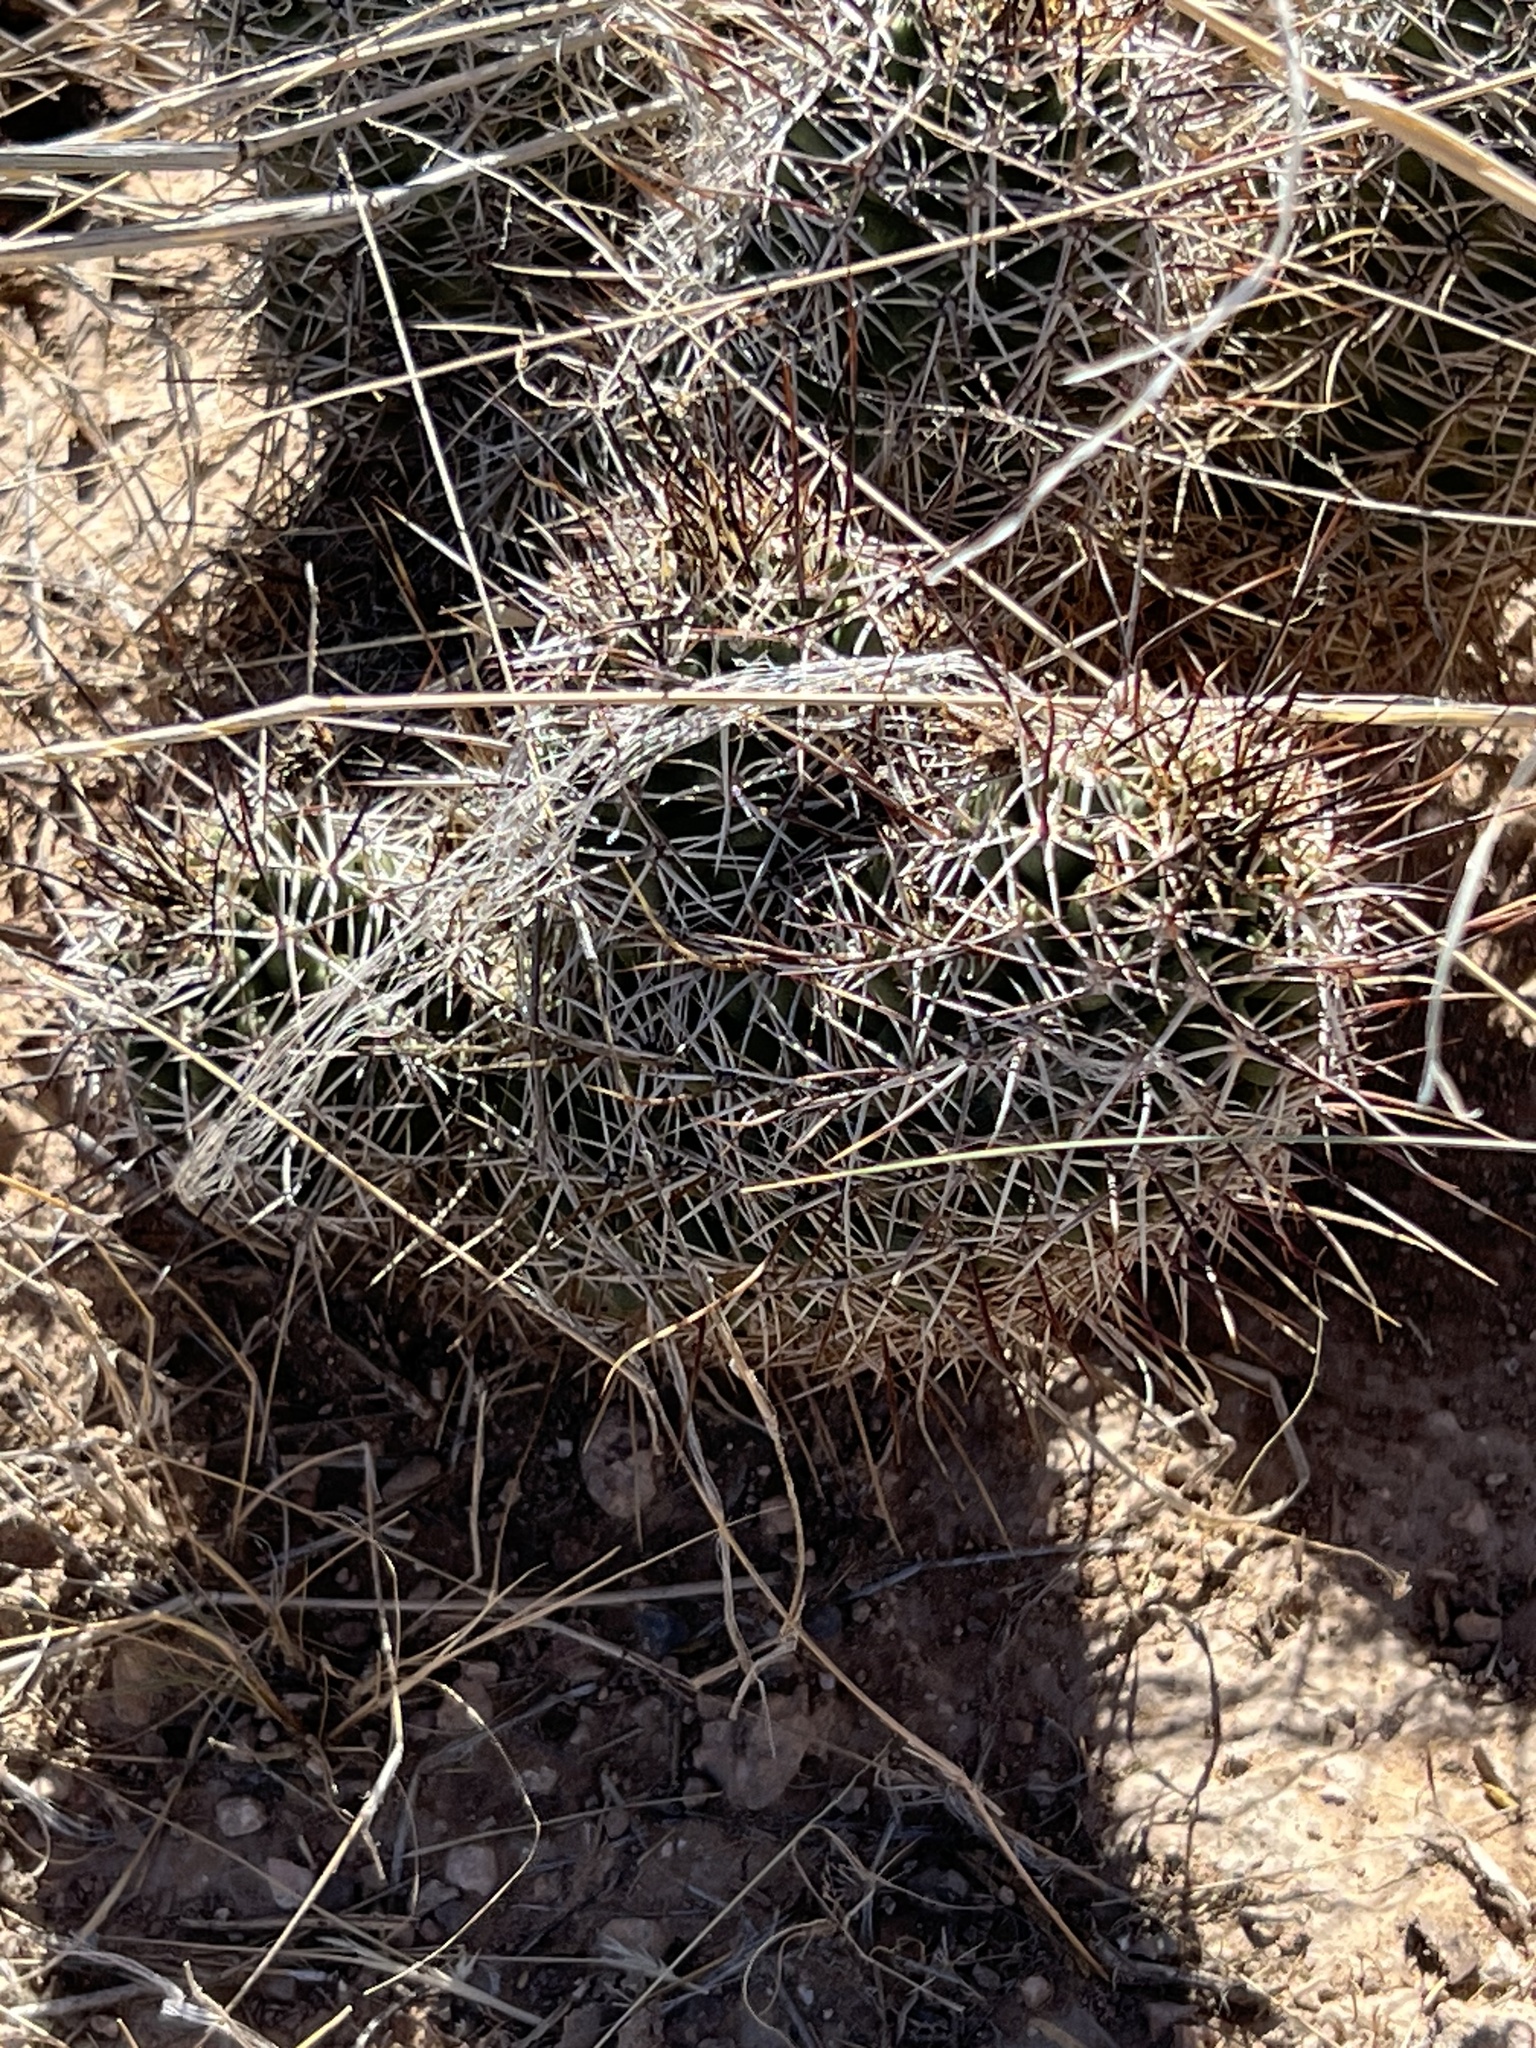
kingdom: Plantae
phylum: Tracheophyta
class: Magnoliopsida
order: Caryophyllales
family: Cactaceae
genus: Echinocereus
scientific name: Echinocereus fendleri
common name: Fendler's hedgehog cactus
